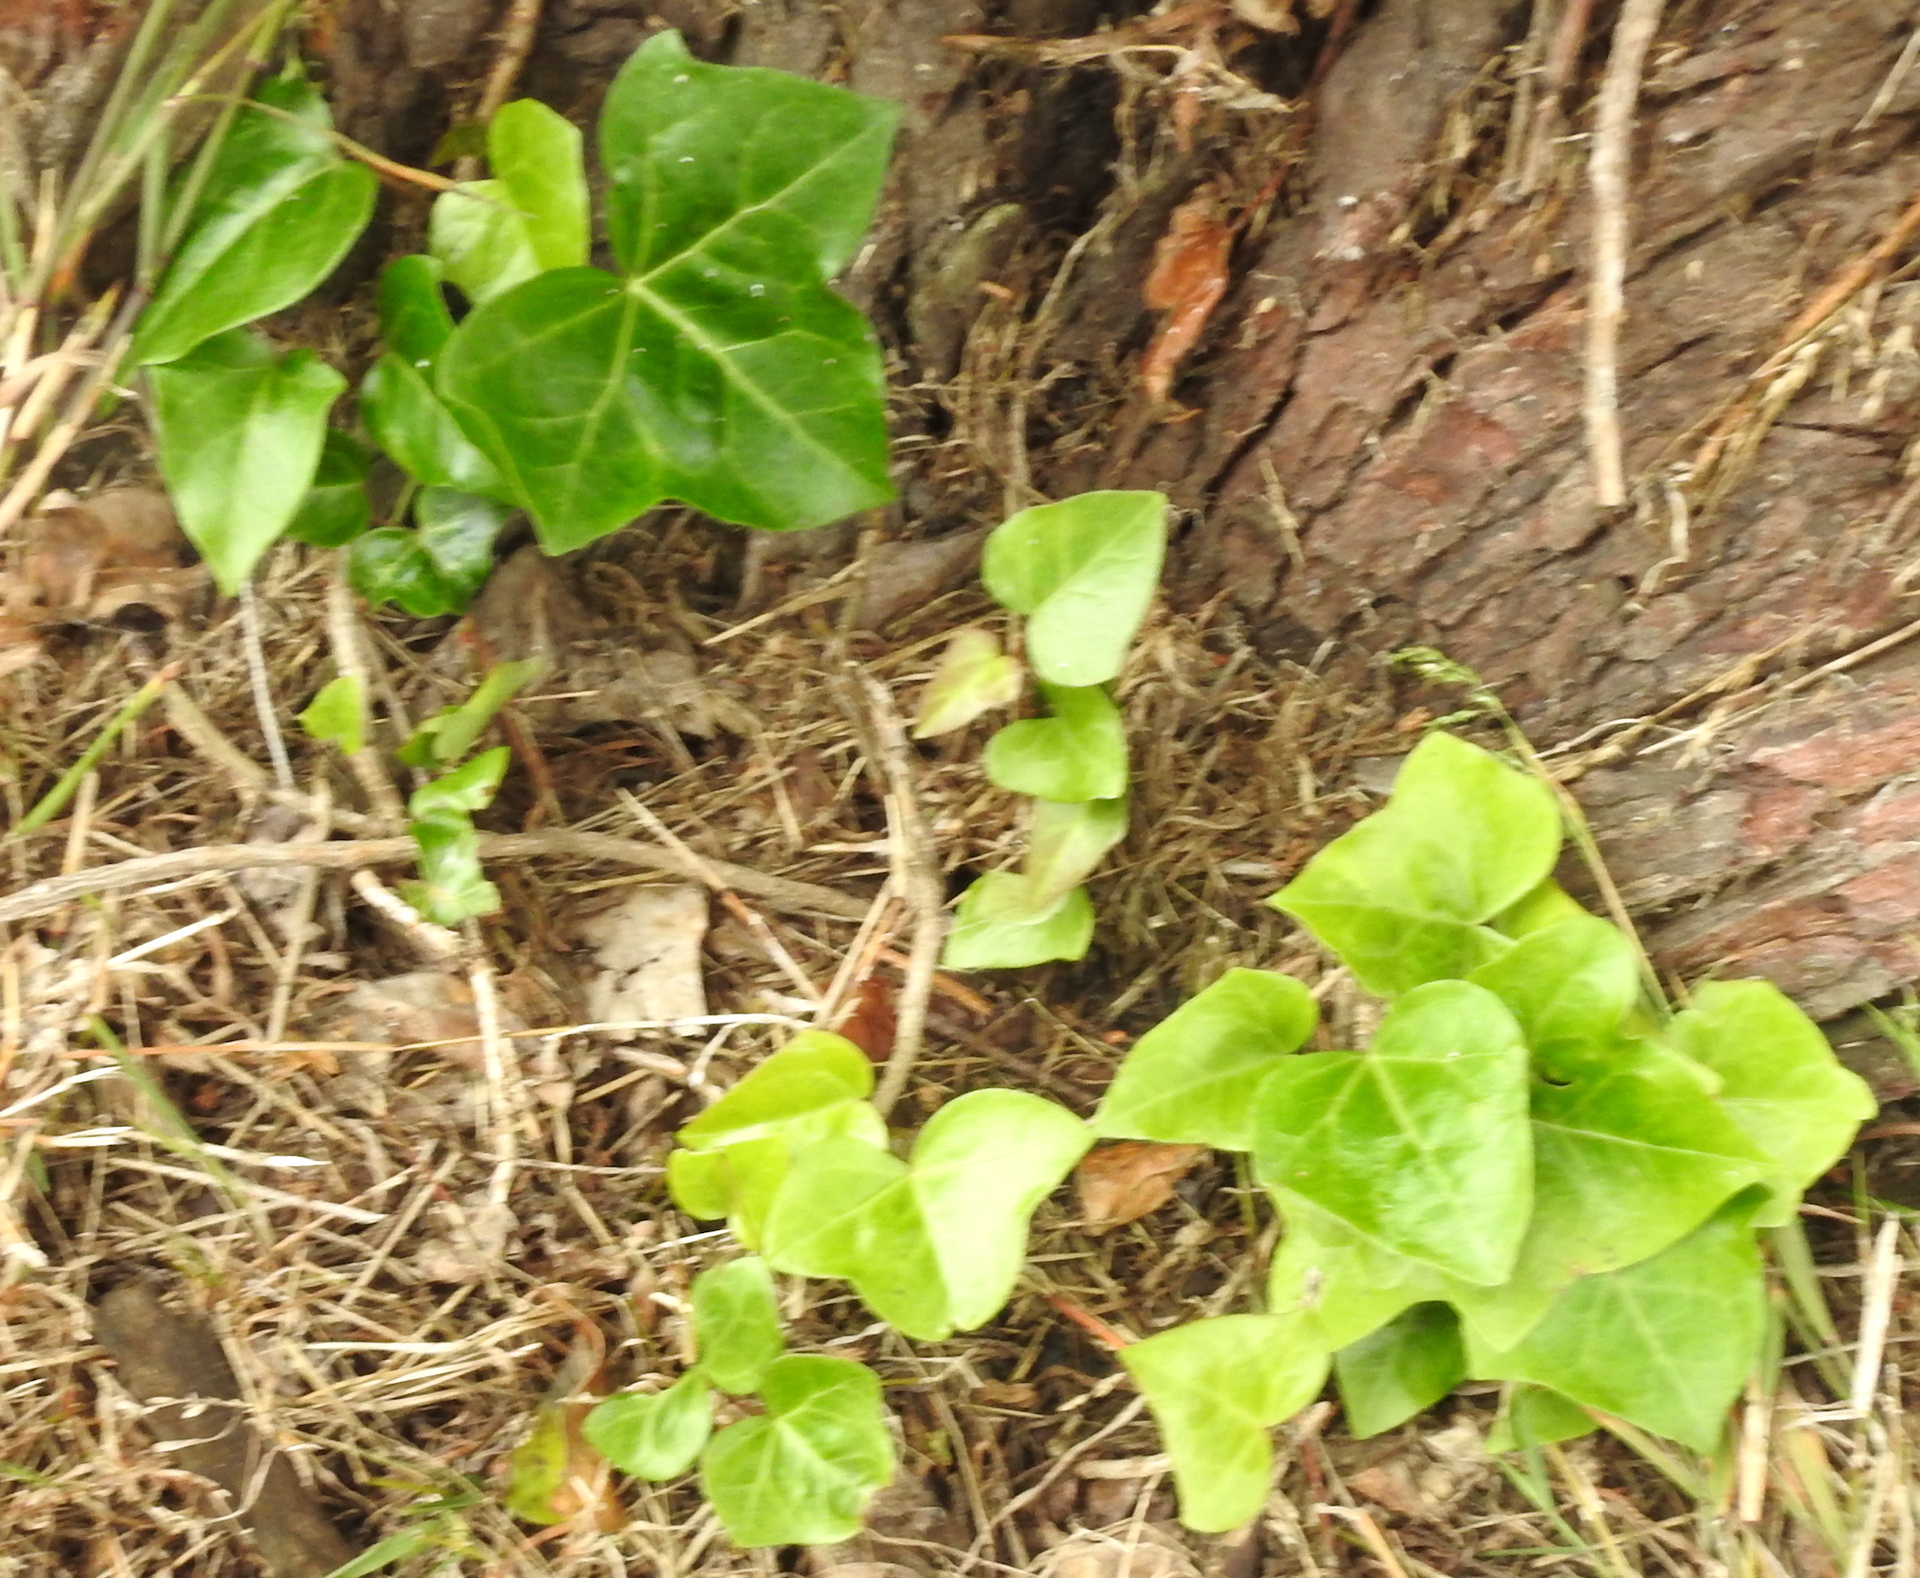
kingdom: Plantae
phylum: Tracheophyta
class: Magnoliopsida
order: Apiales
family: Araliaceae
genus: Hedera
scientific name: Hedera helix
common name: Ivy
